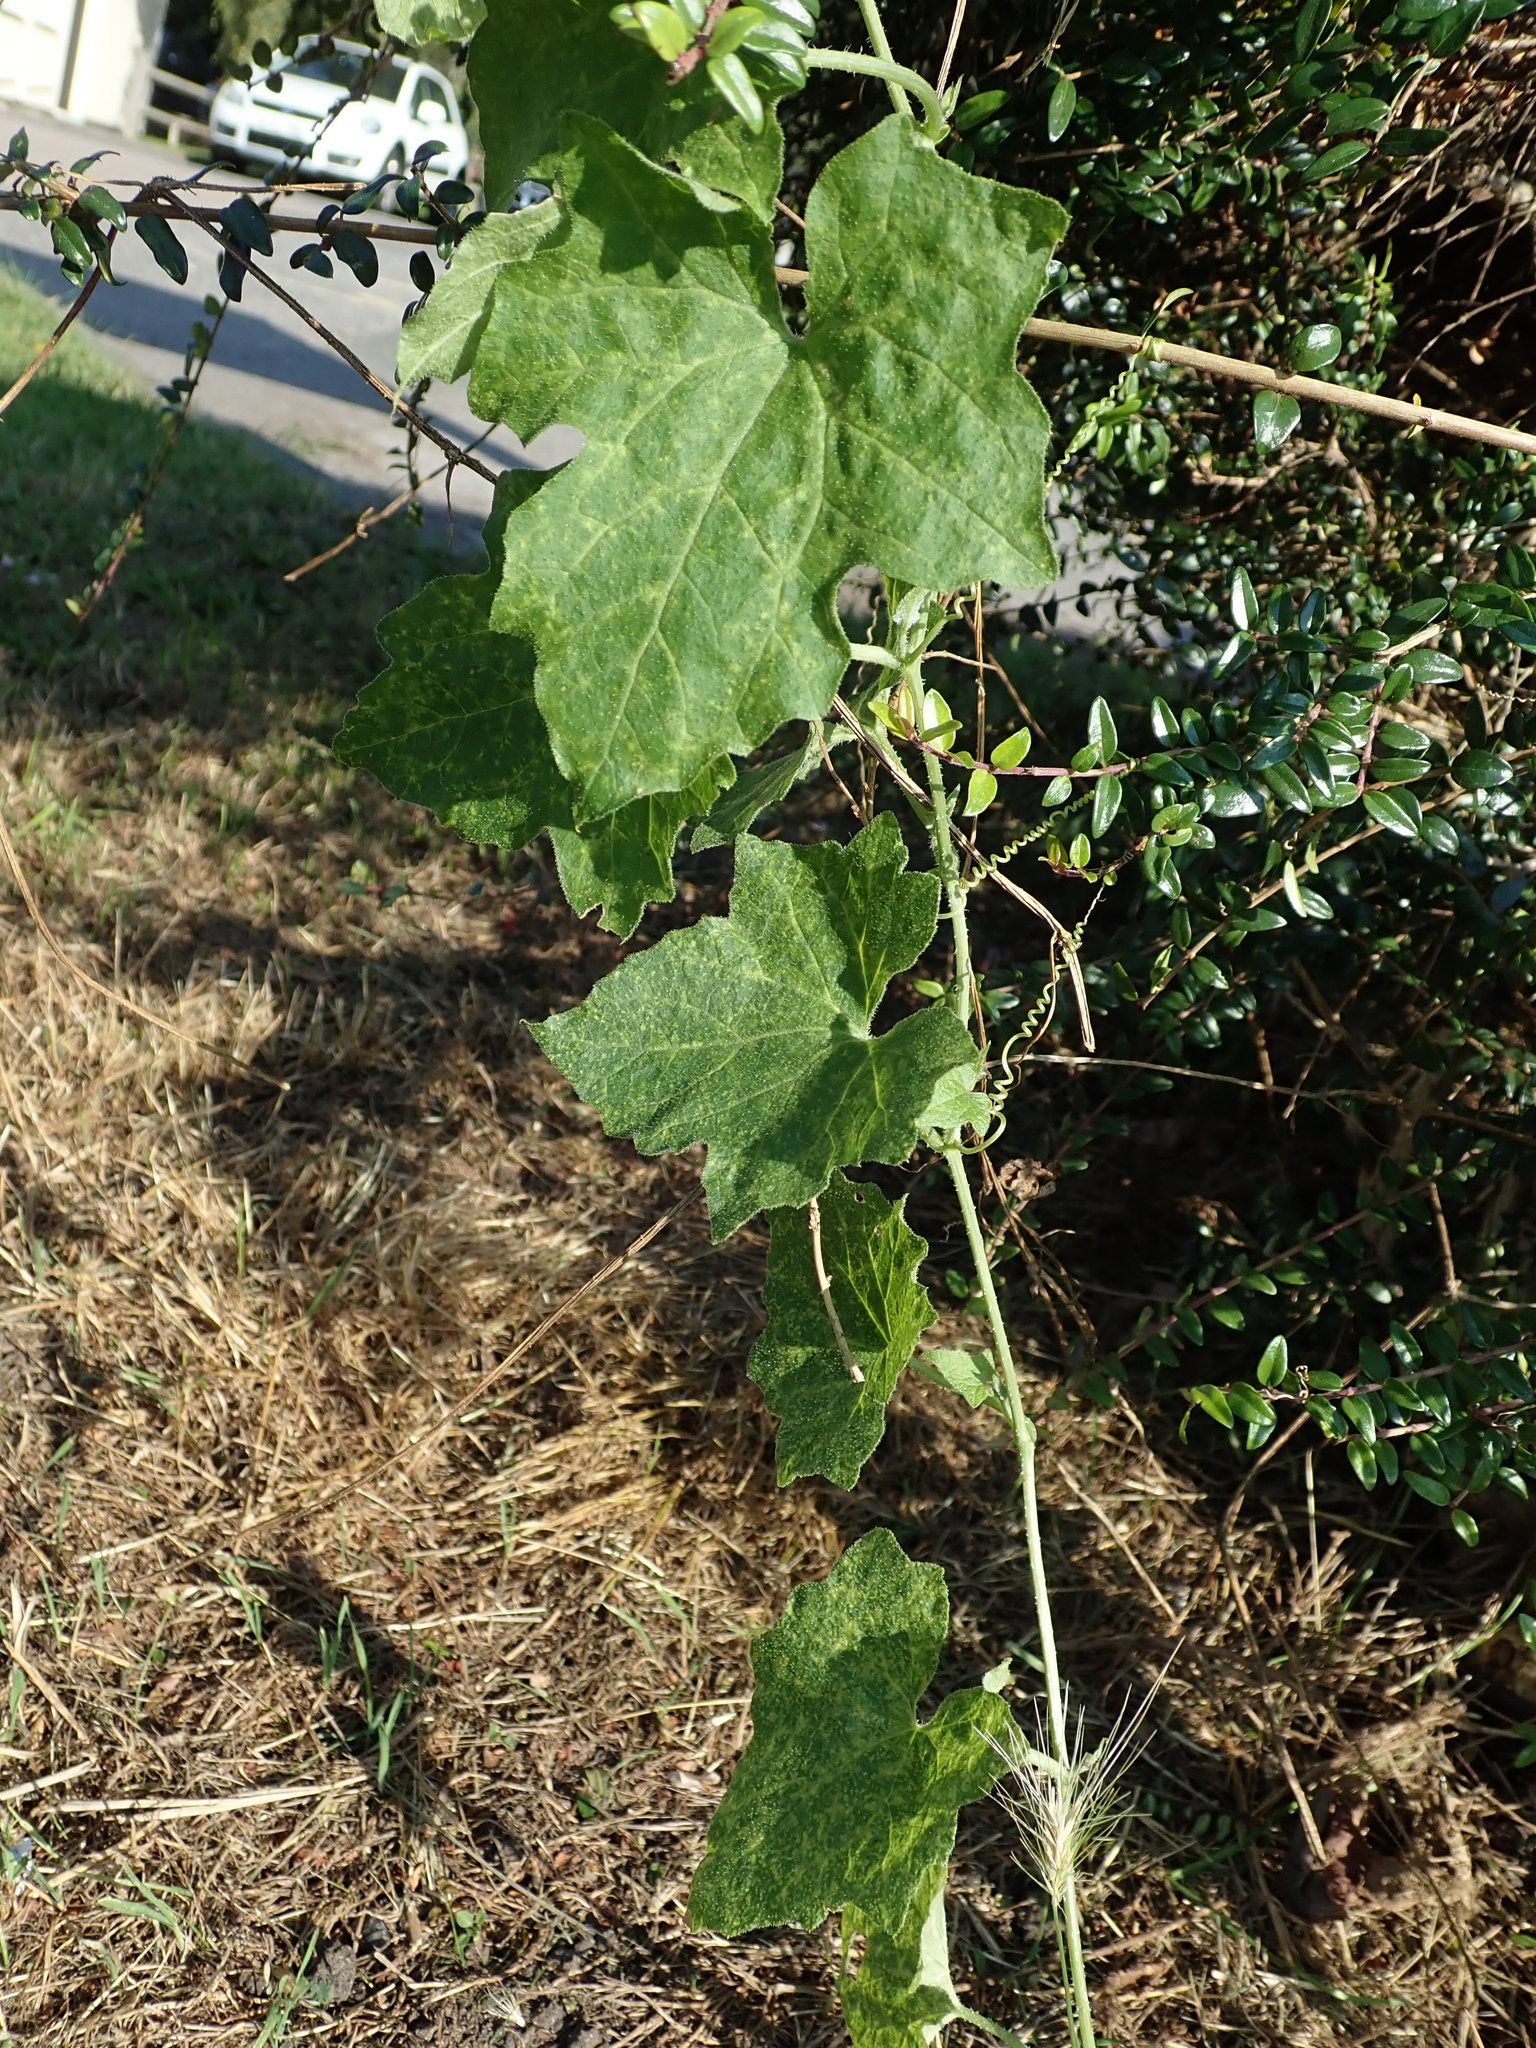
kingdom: Plantae
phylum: Tracheophyta
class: Magnoliopsida
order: Cucurbitales
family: Cucurbitaceae
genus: Bryonia
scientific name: Bryonia cretica
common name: Cretan bryony
